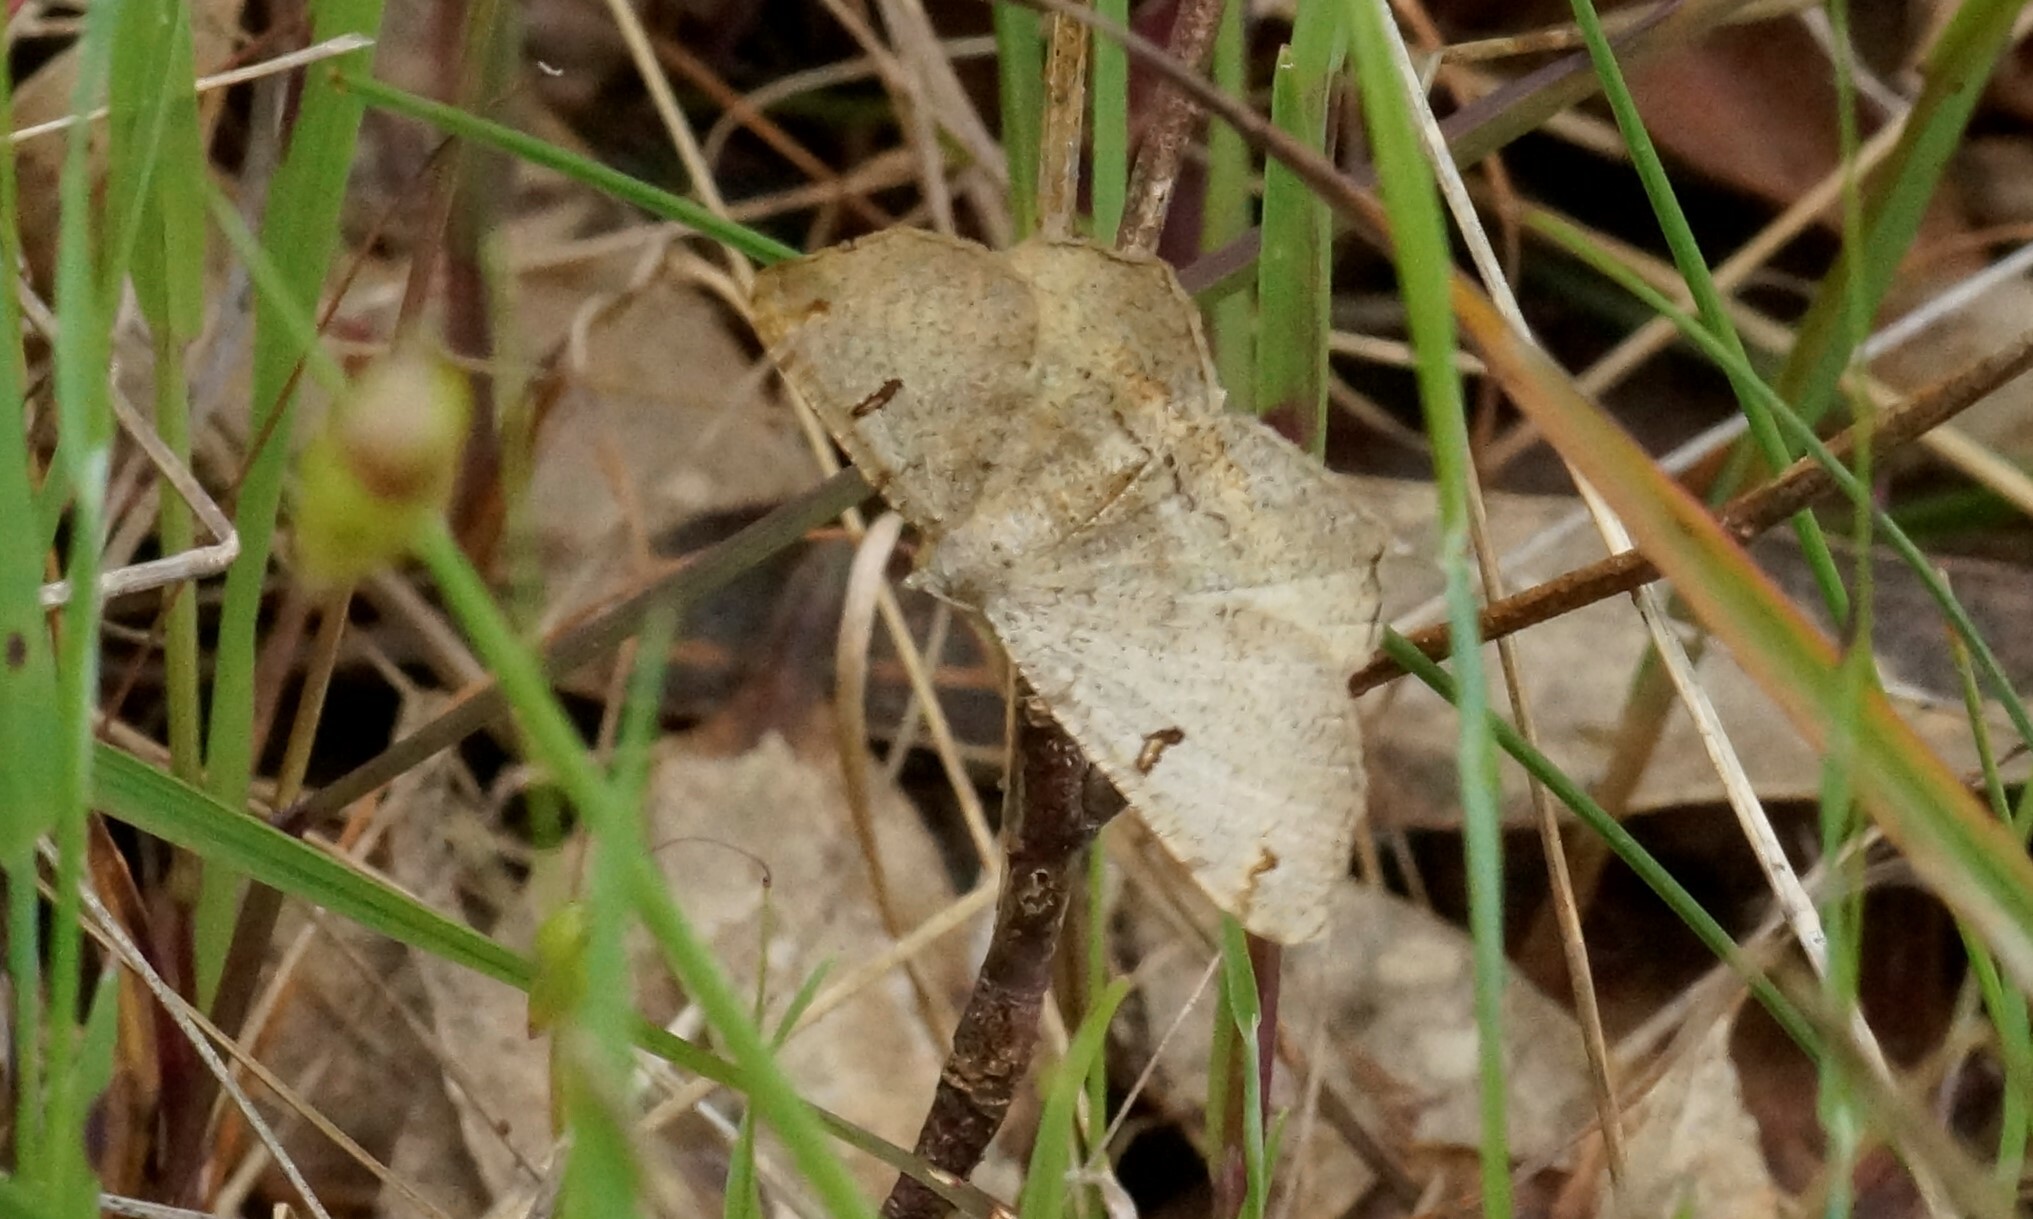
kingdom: Animalia
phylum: Arthropoda
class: Insecta
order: Lepidoptera
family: Geometridae
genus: Dissomorphia
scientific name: Dissomorphia australiaria
